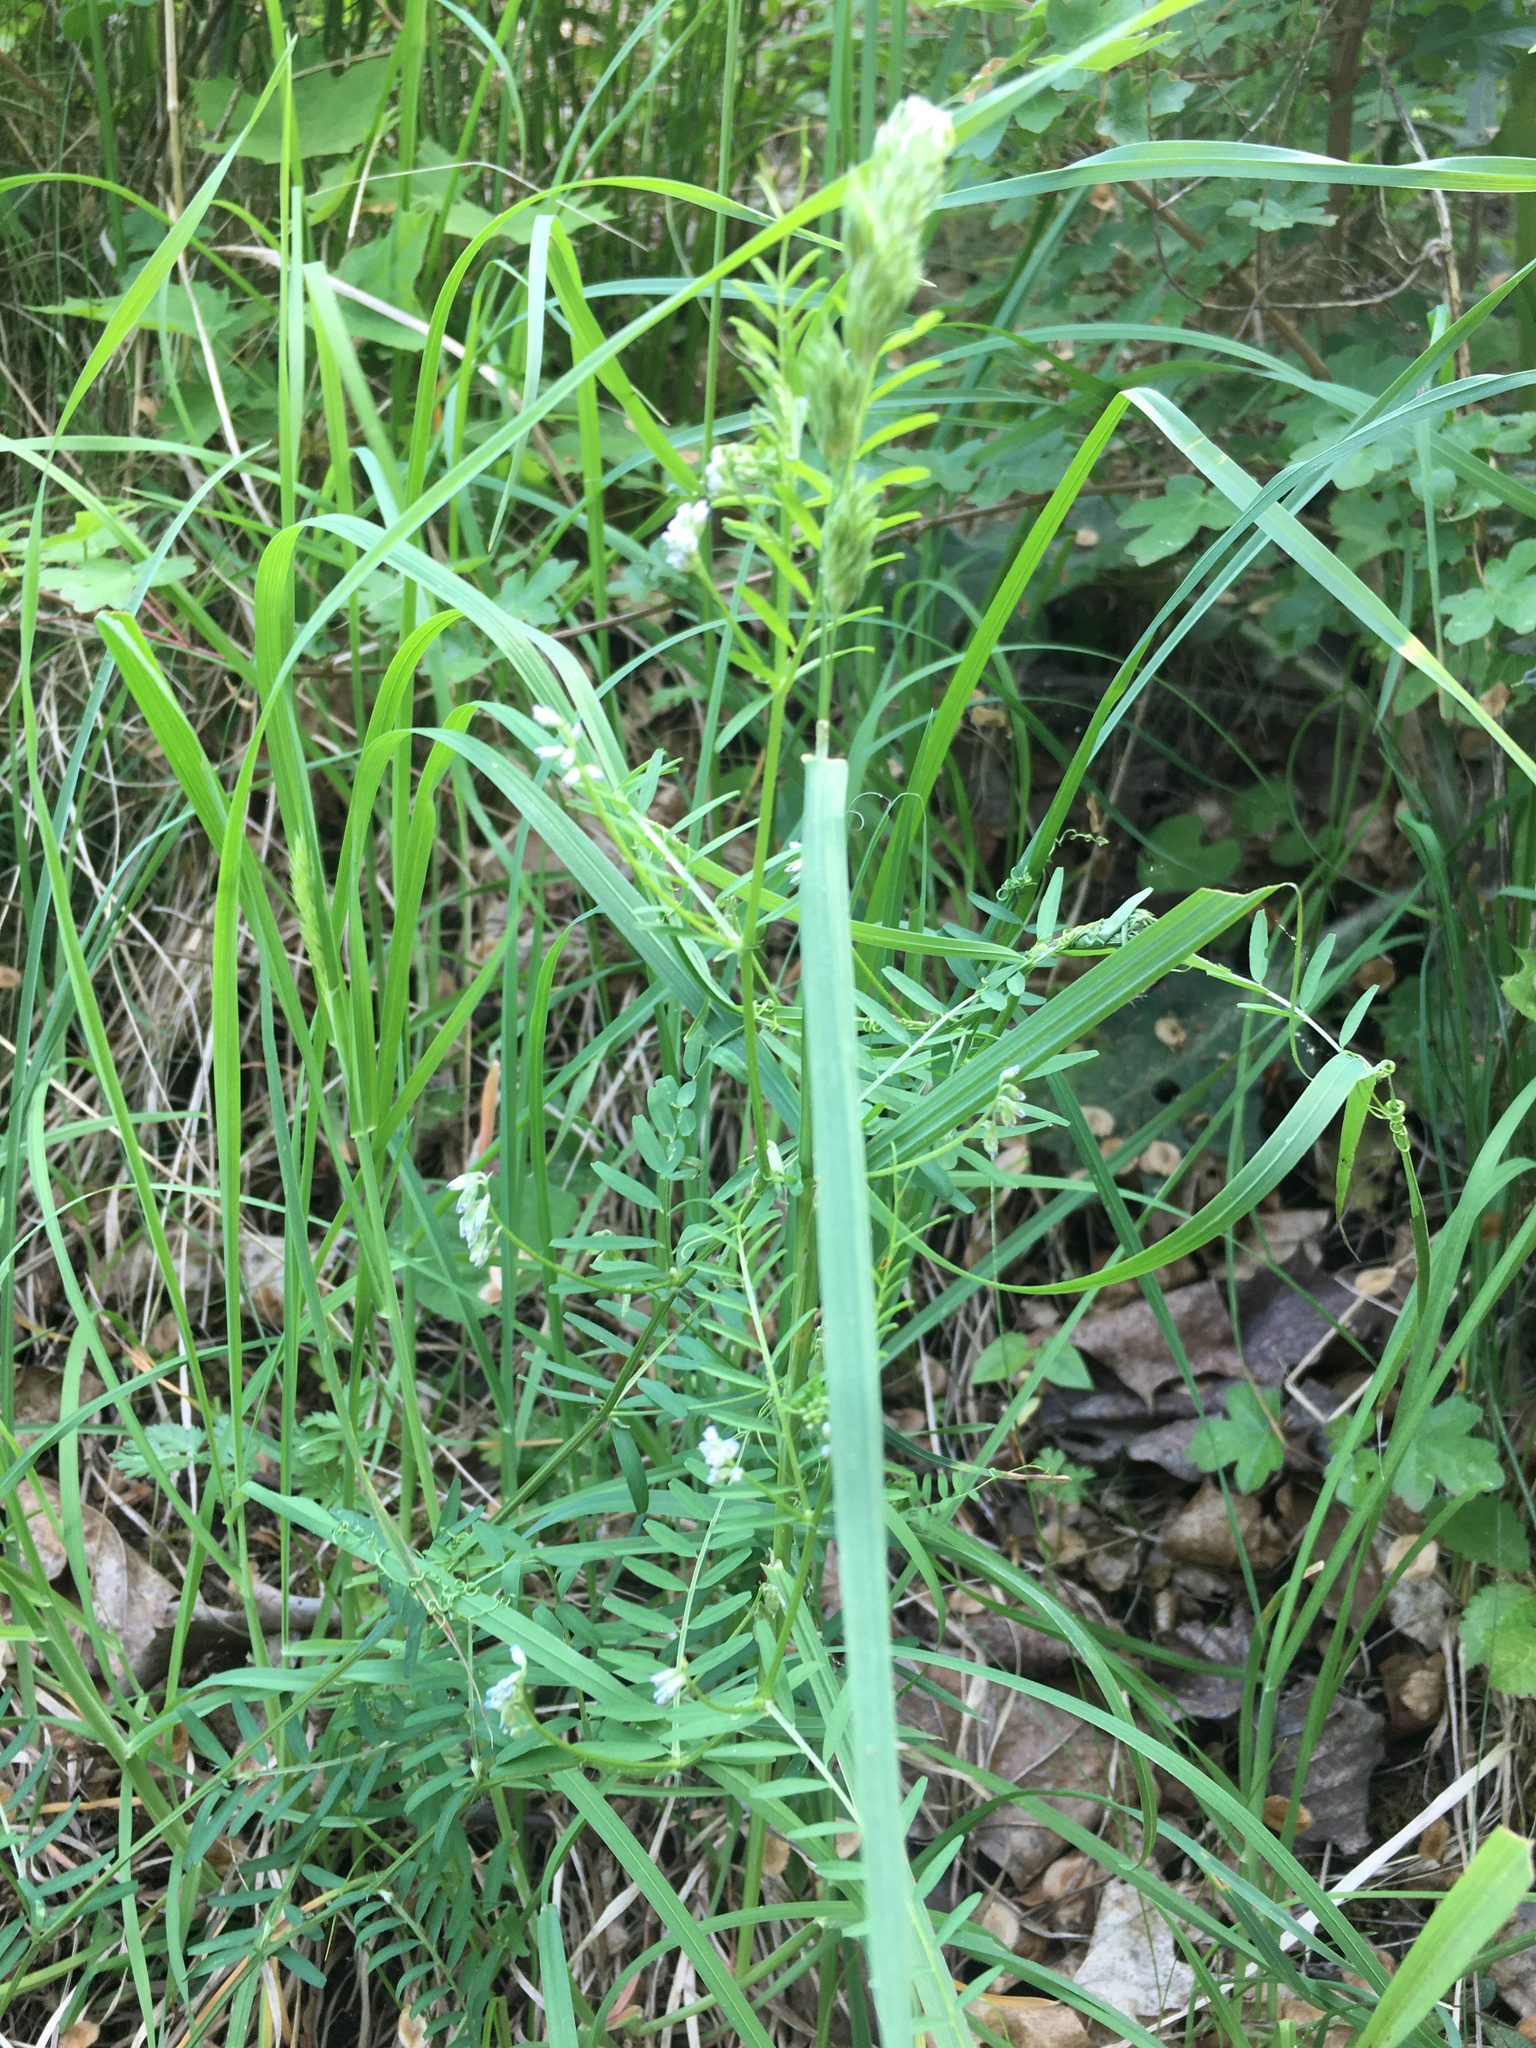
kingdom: Plantae
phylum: Tracheophyta
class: Magnoliopsida
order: Fabales
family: Fabaceae
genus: Vicia
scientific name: Vicia hirsuta
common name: Tiny vetch
